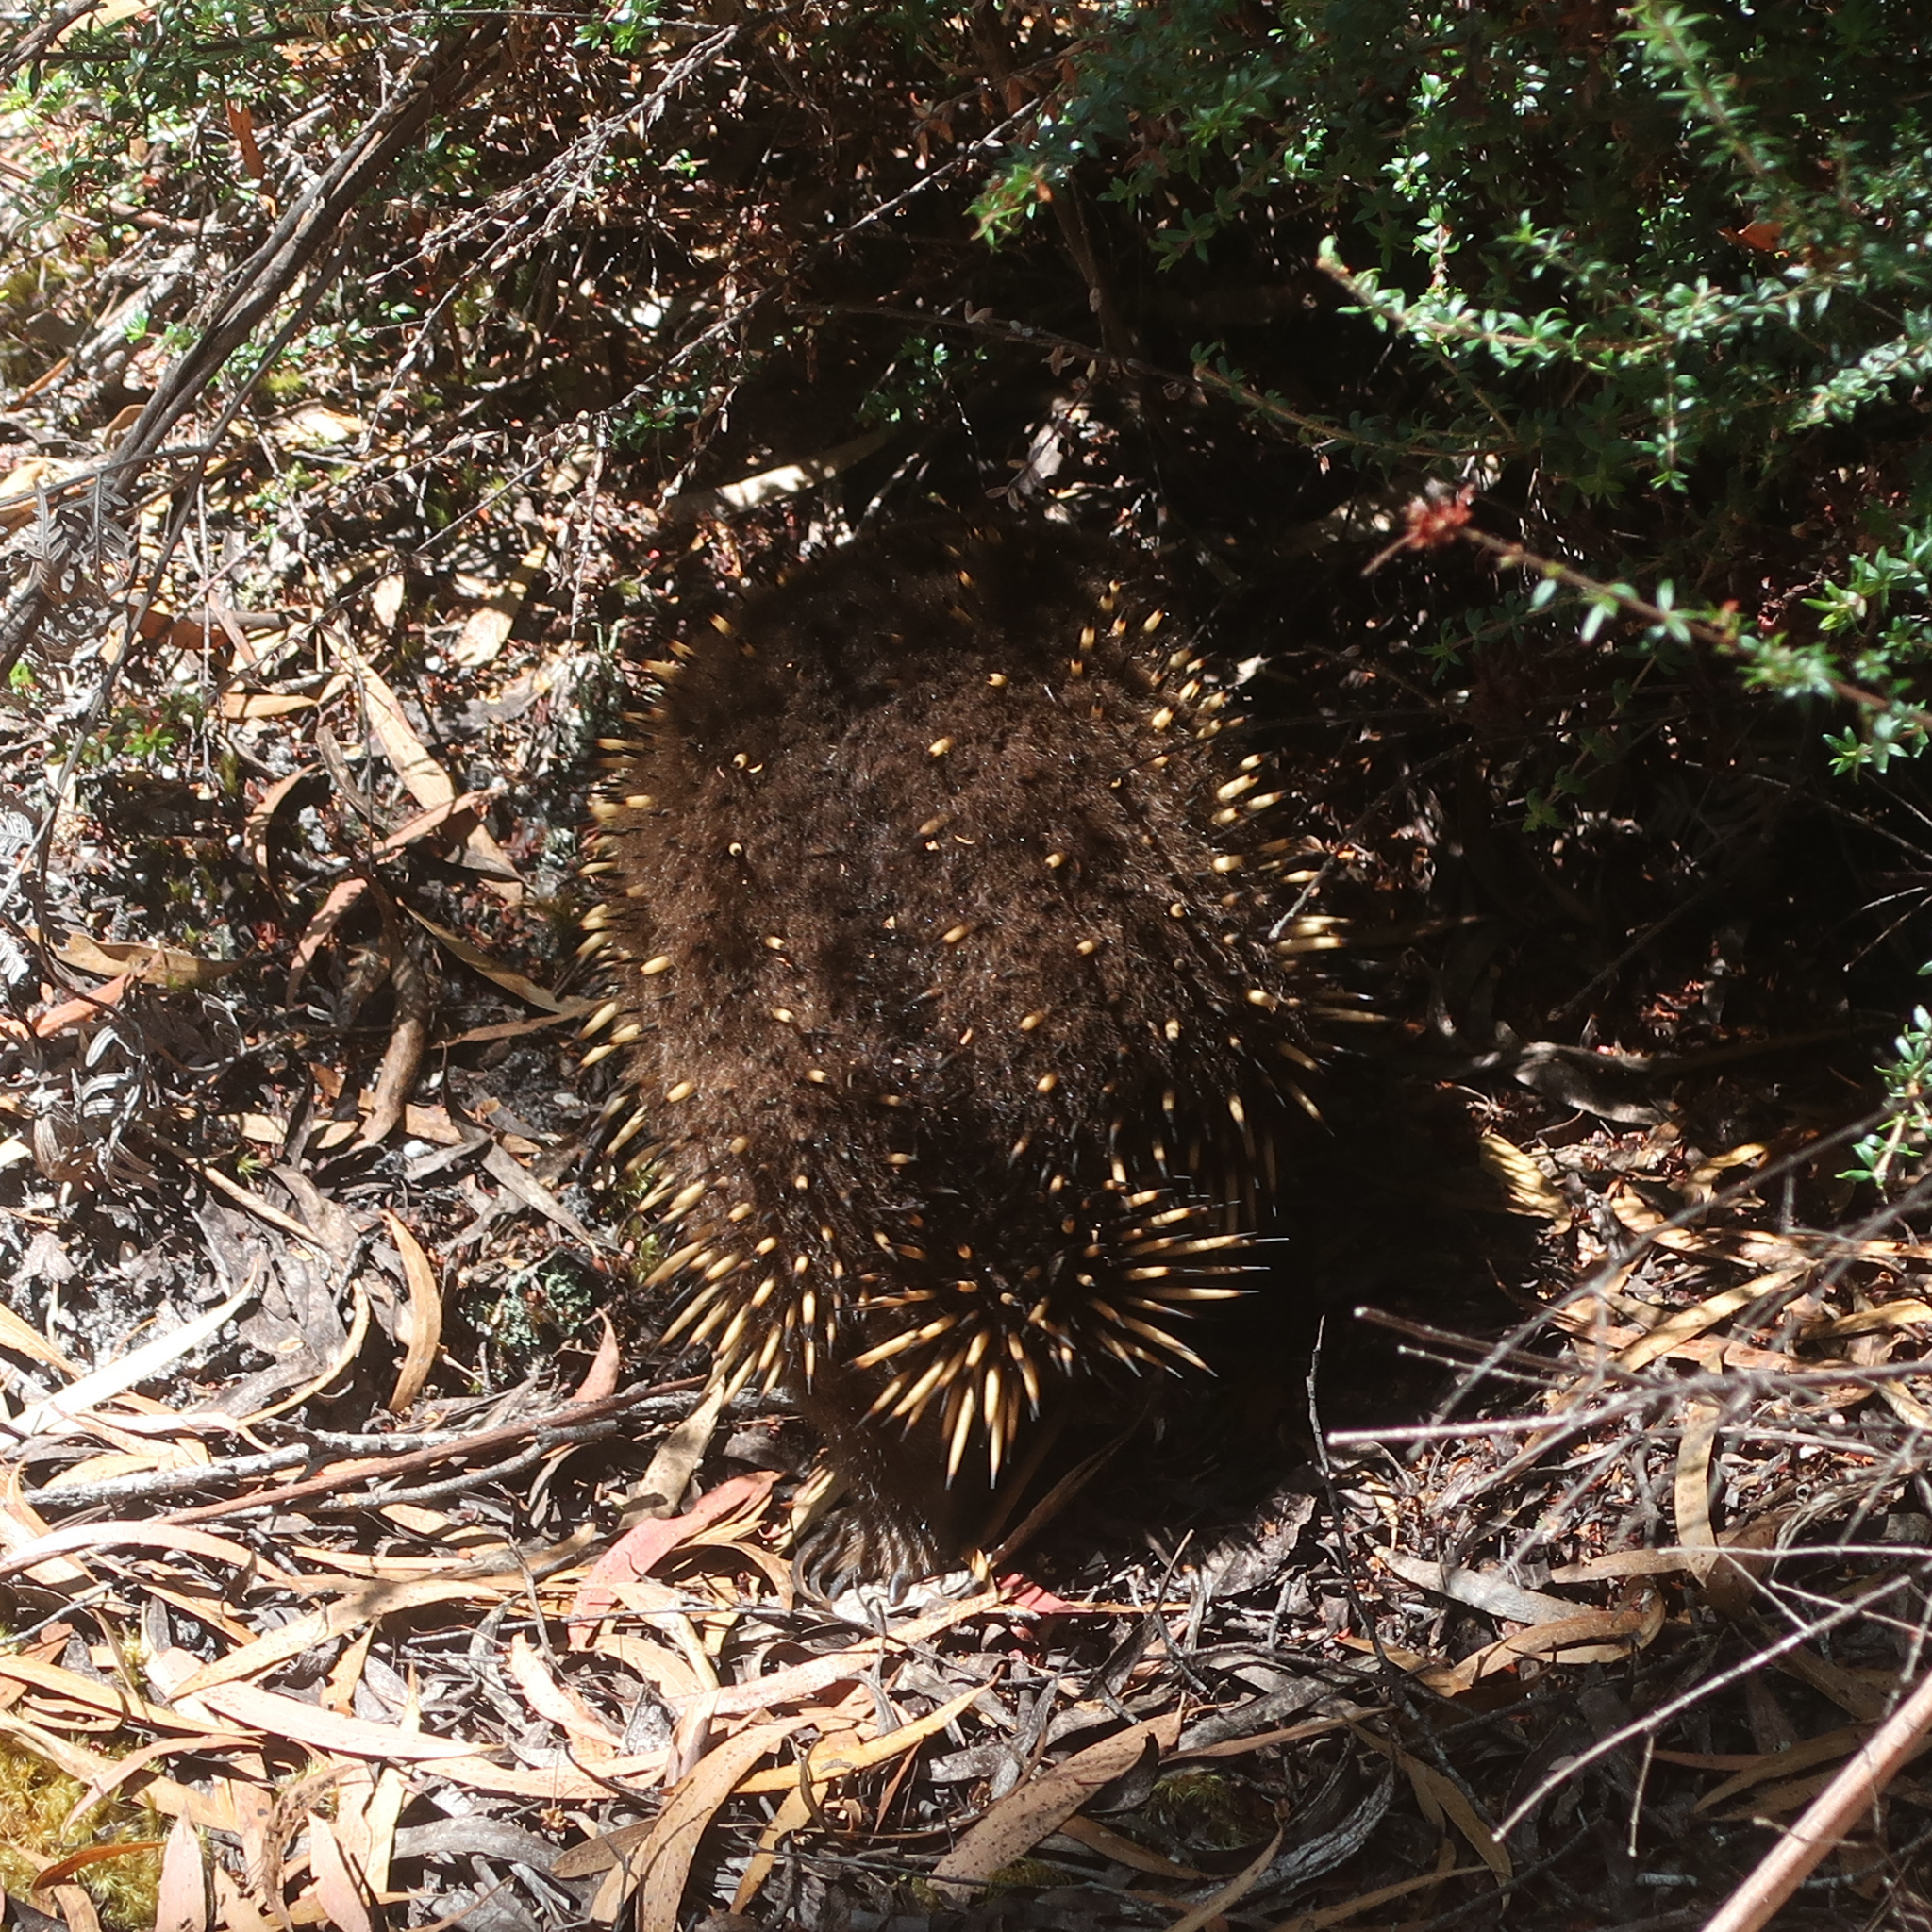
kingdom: Animalia
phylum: Chordata
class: Mammalia
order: Monotremata
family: Tachyglossidae
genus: Tachyglossus
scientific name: Tachyglossus aculeatus
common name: Short-beaked echidna
